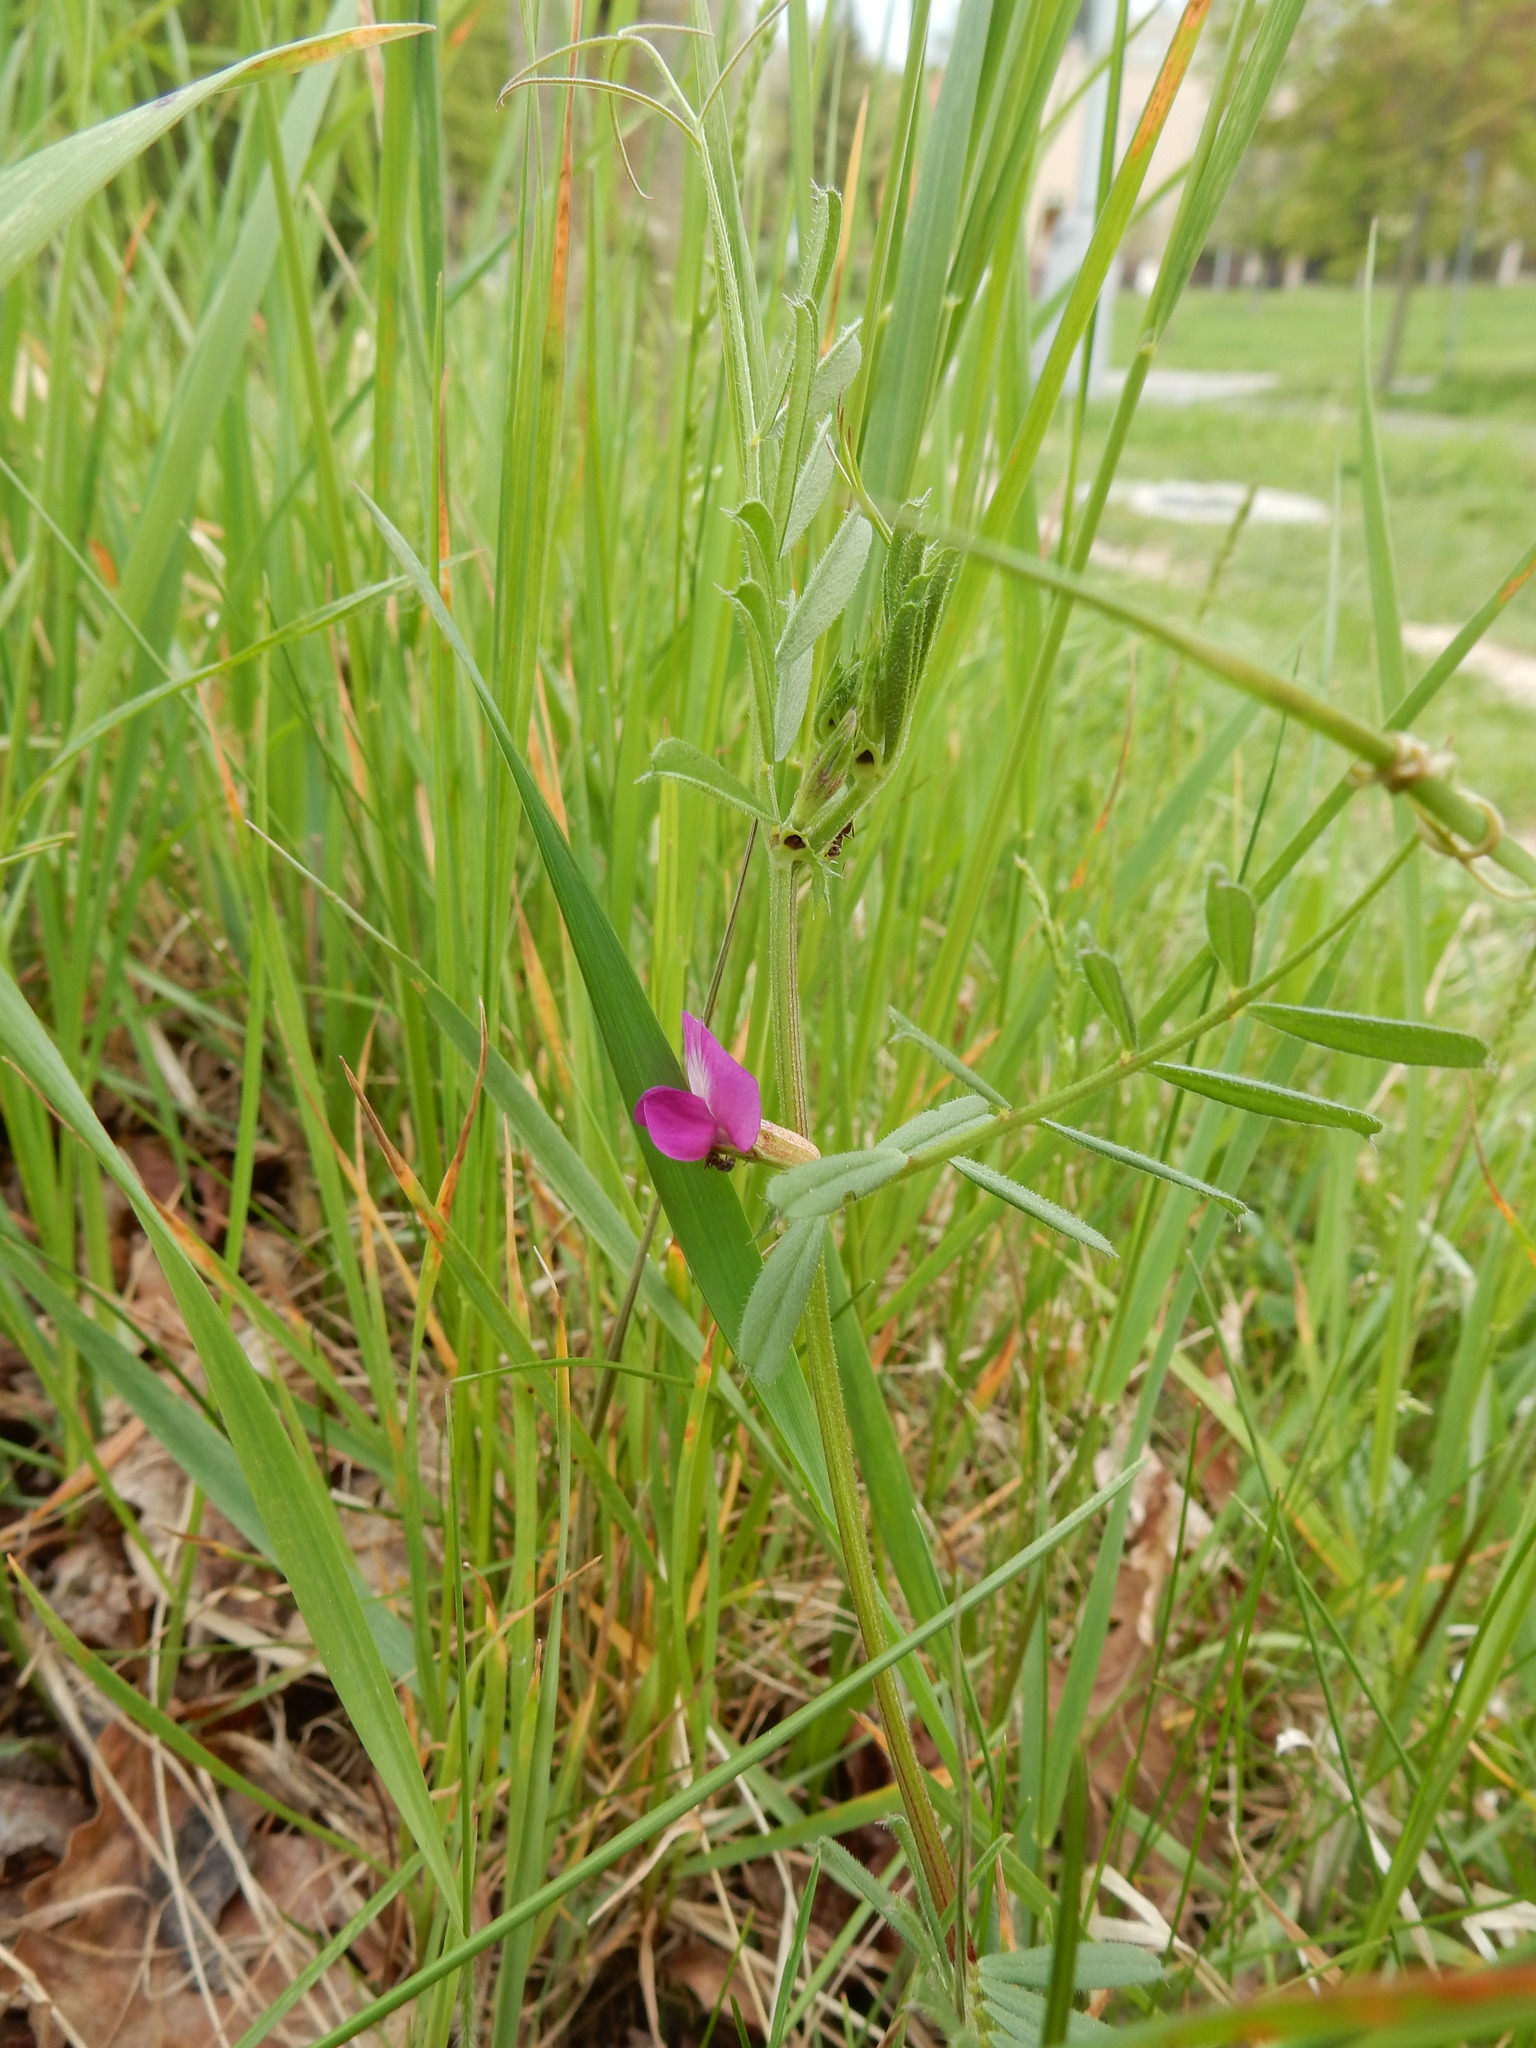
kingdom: Plantae
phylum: Tracheophyta
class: Magnoliopsida
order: Fabales
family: Fabaceae
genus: Vicia
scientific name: Vicia sativa
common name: Garden vetch
